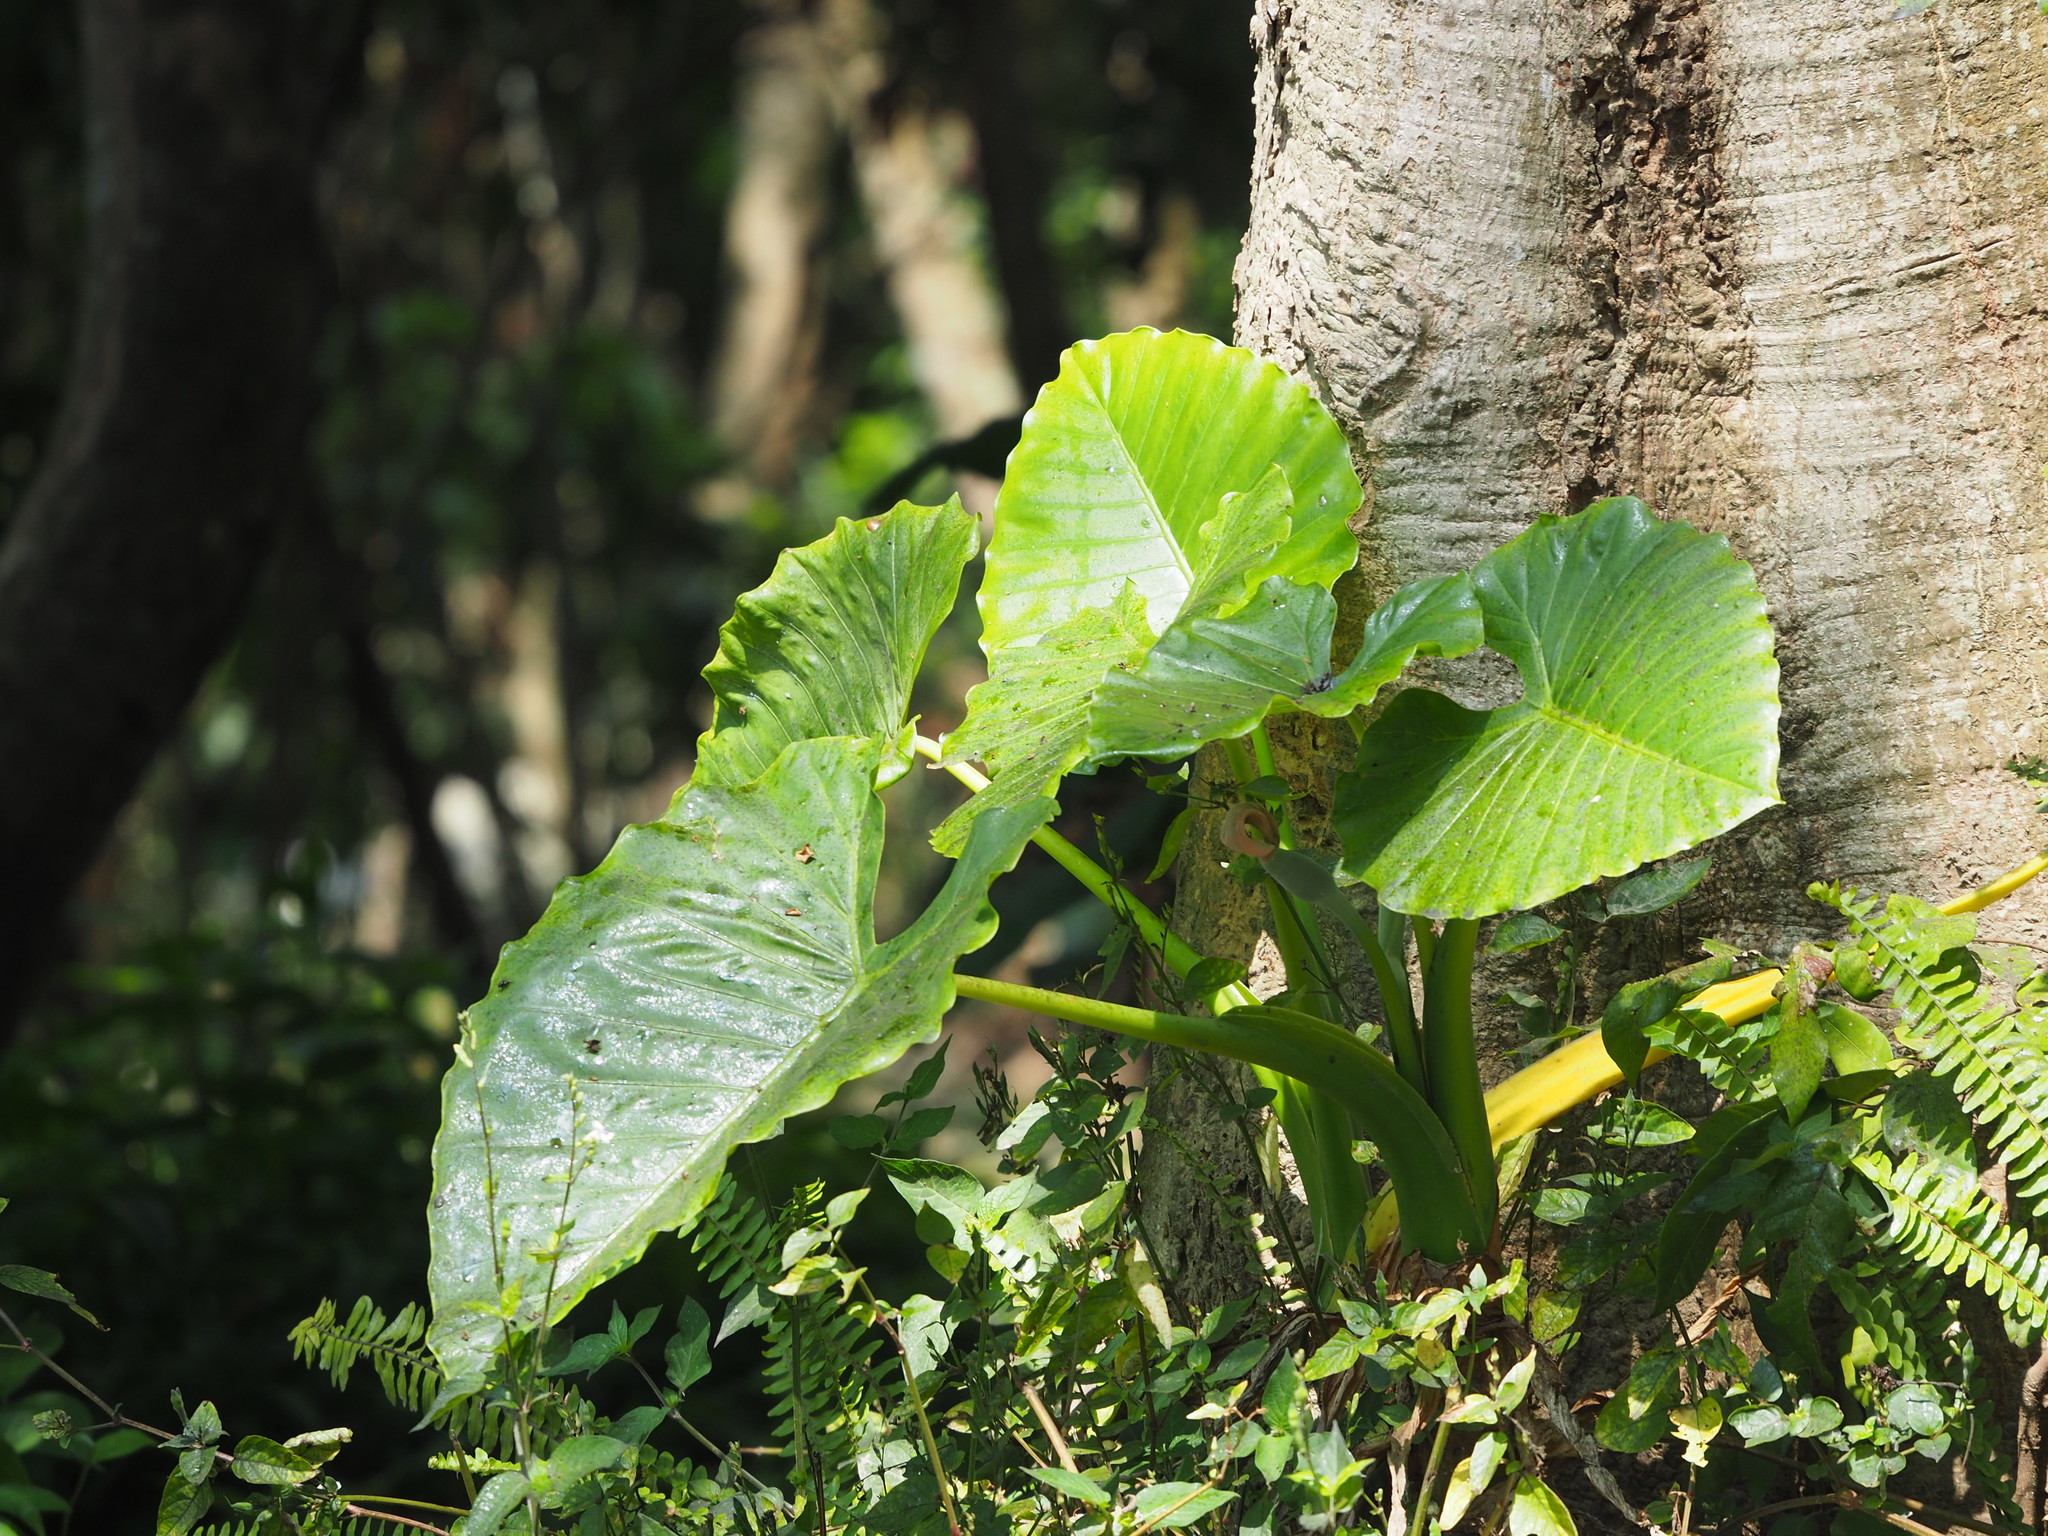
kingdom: Plantae
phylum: Tracheophyta
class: Liliopsida
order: Alismatales
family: Araceae
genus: Alocasia
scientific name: Alocasia odora
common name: Asian taro
